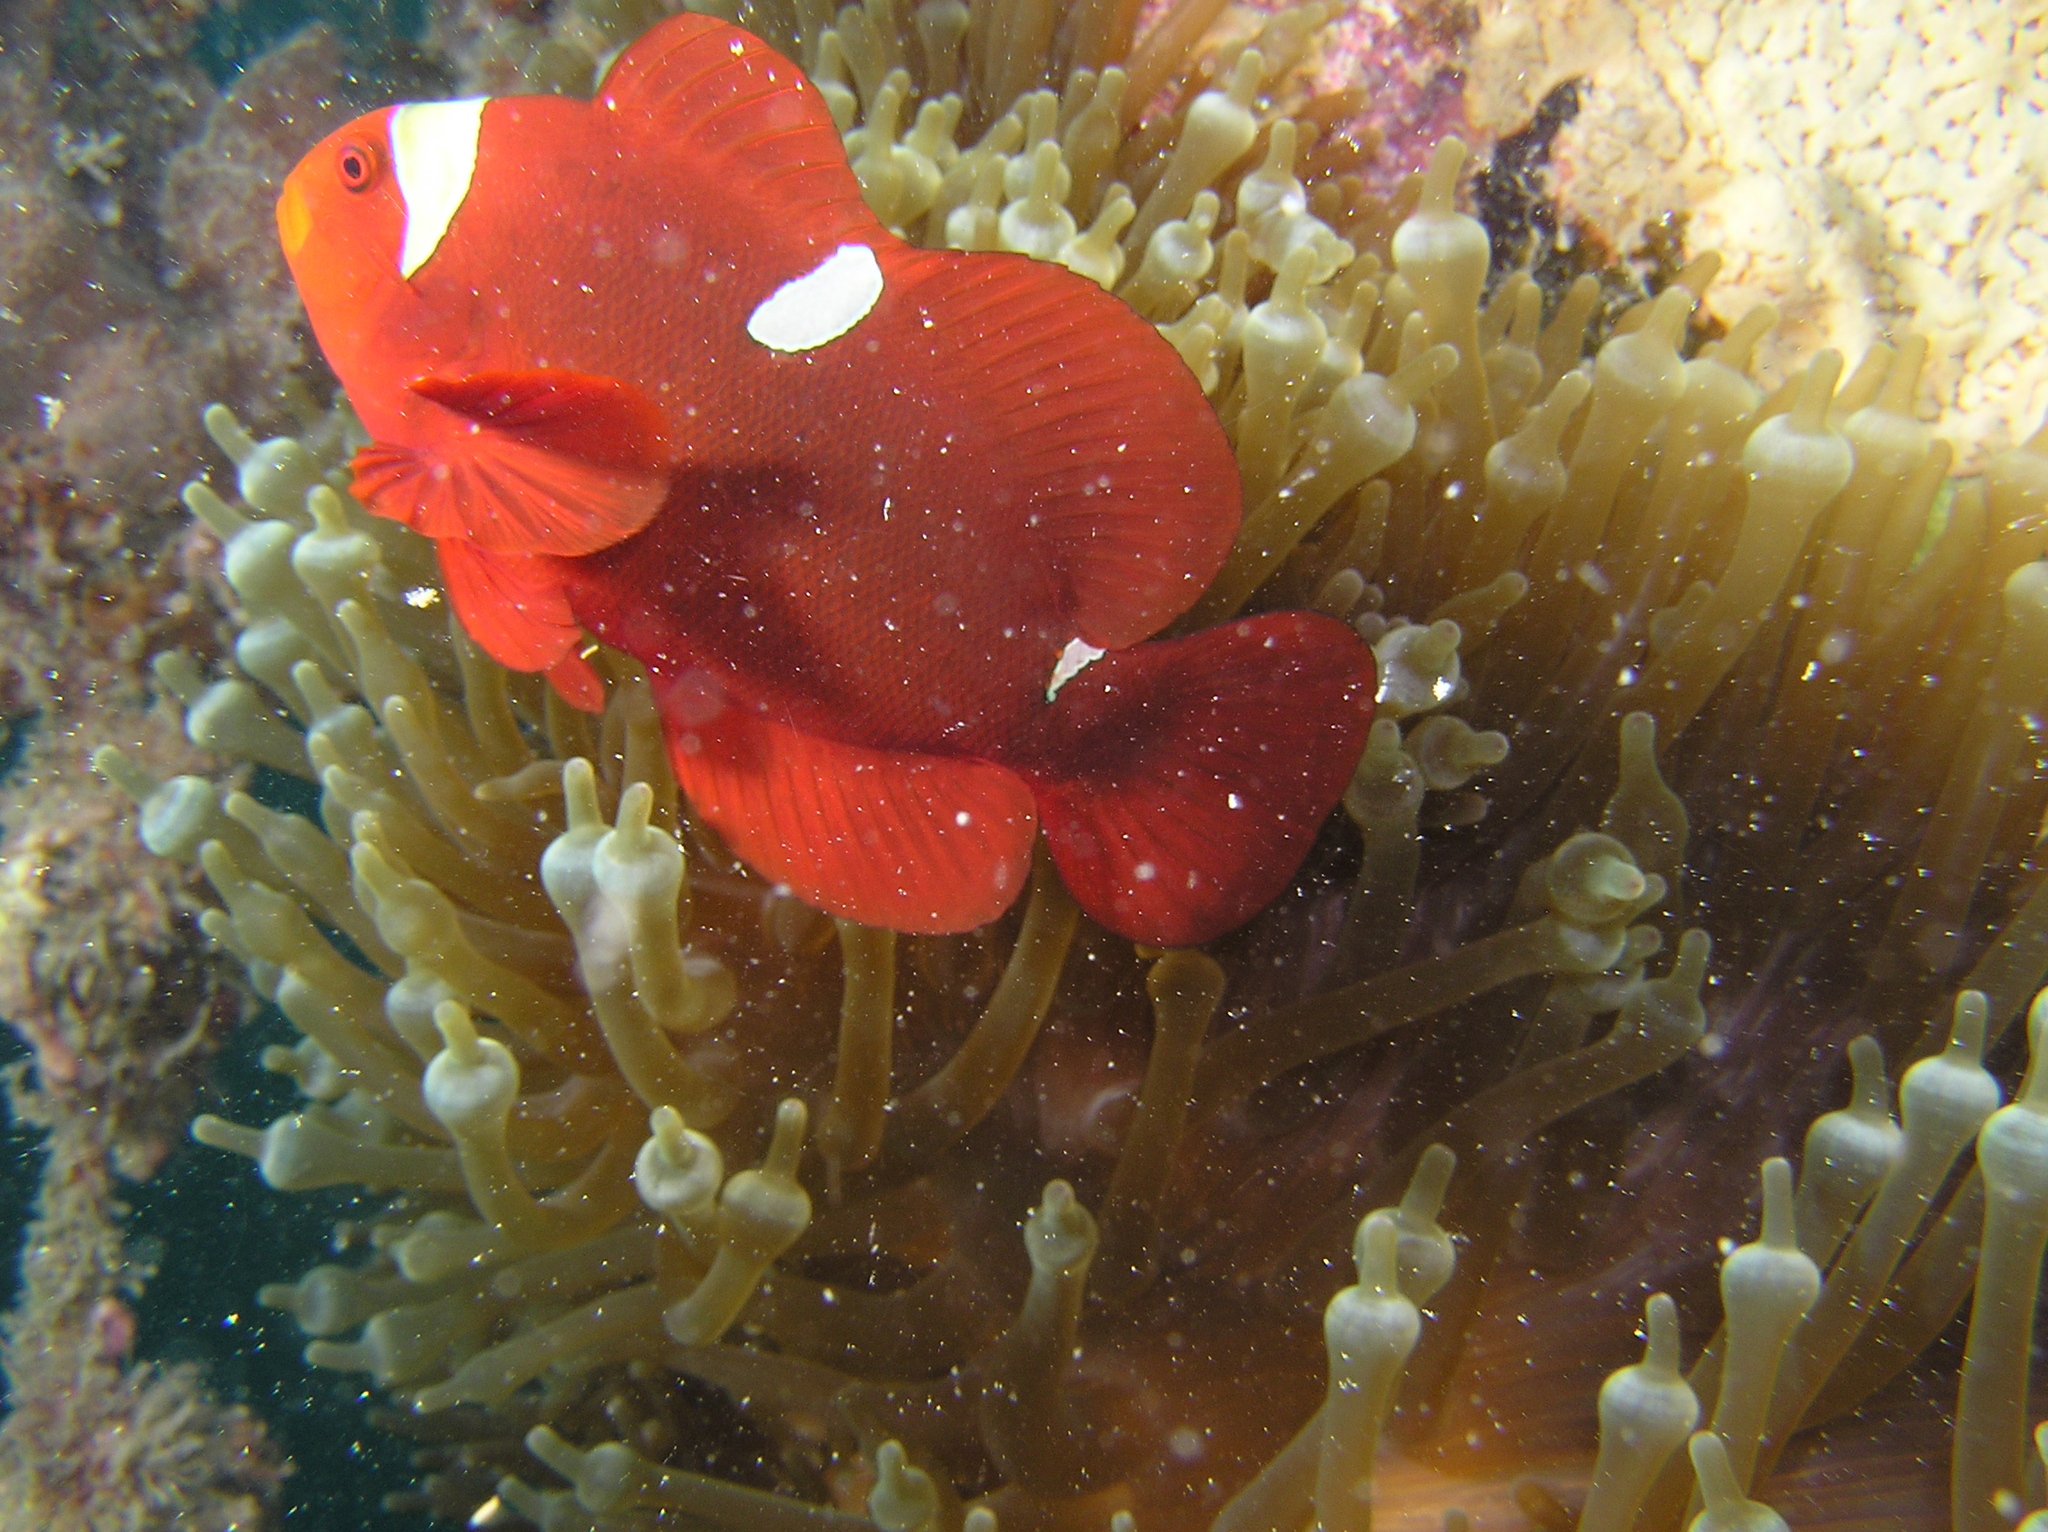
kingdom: Animalia
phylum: Chordata
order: Perciformes
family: Pomacentridae
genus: Premnas
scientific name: Premnas biaculeatus
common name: Spinecheek anemonefish
